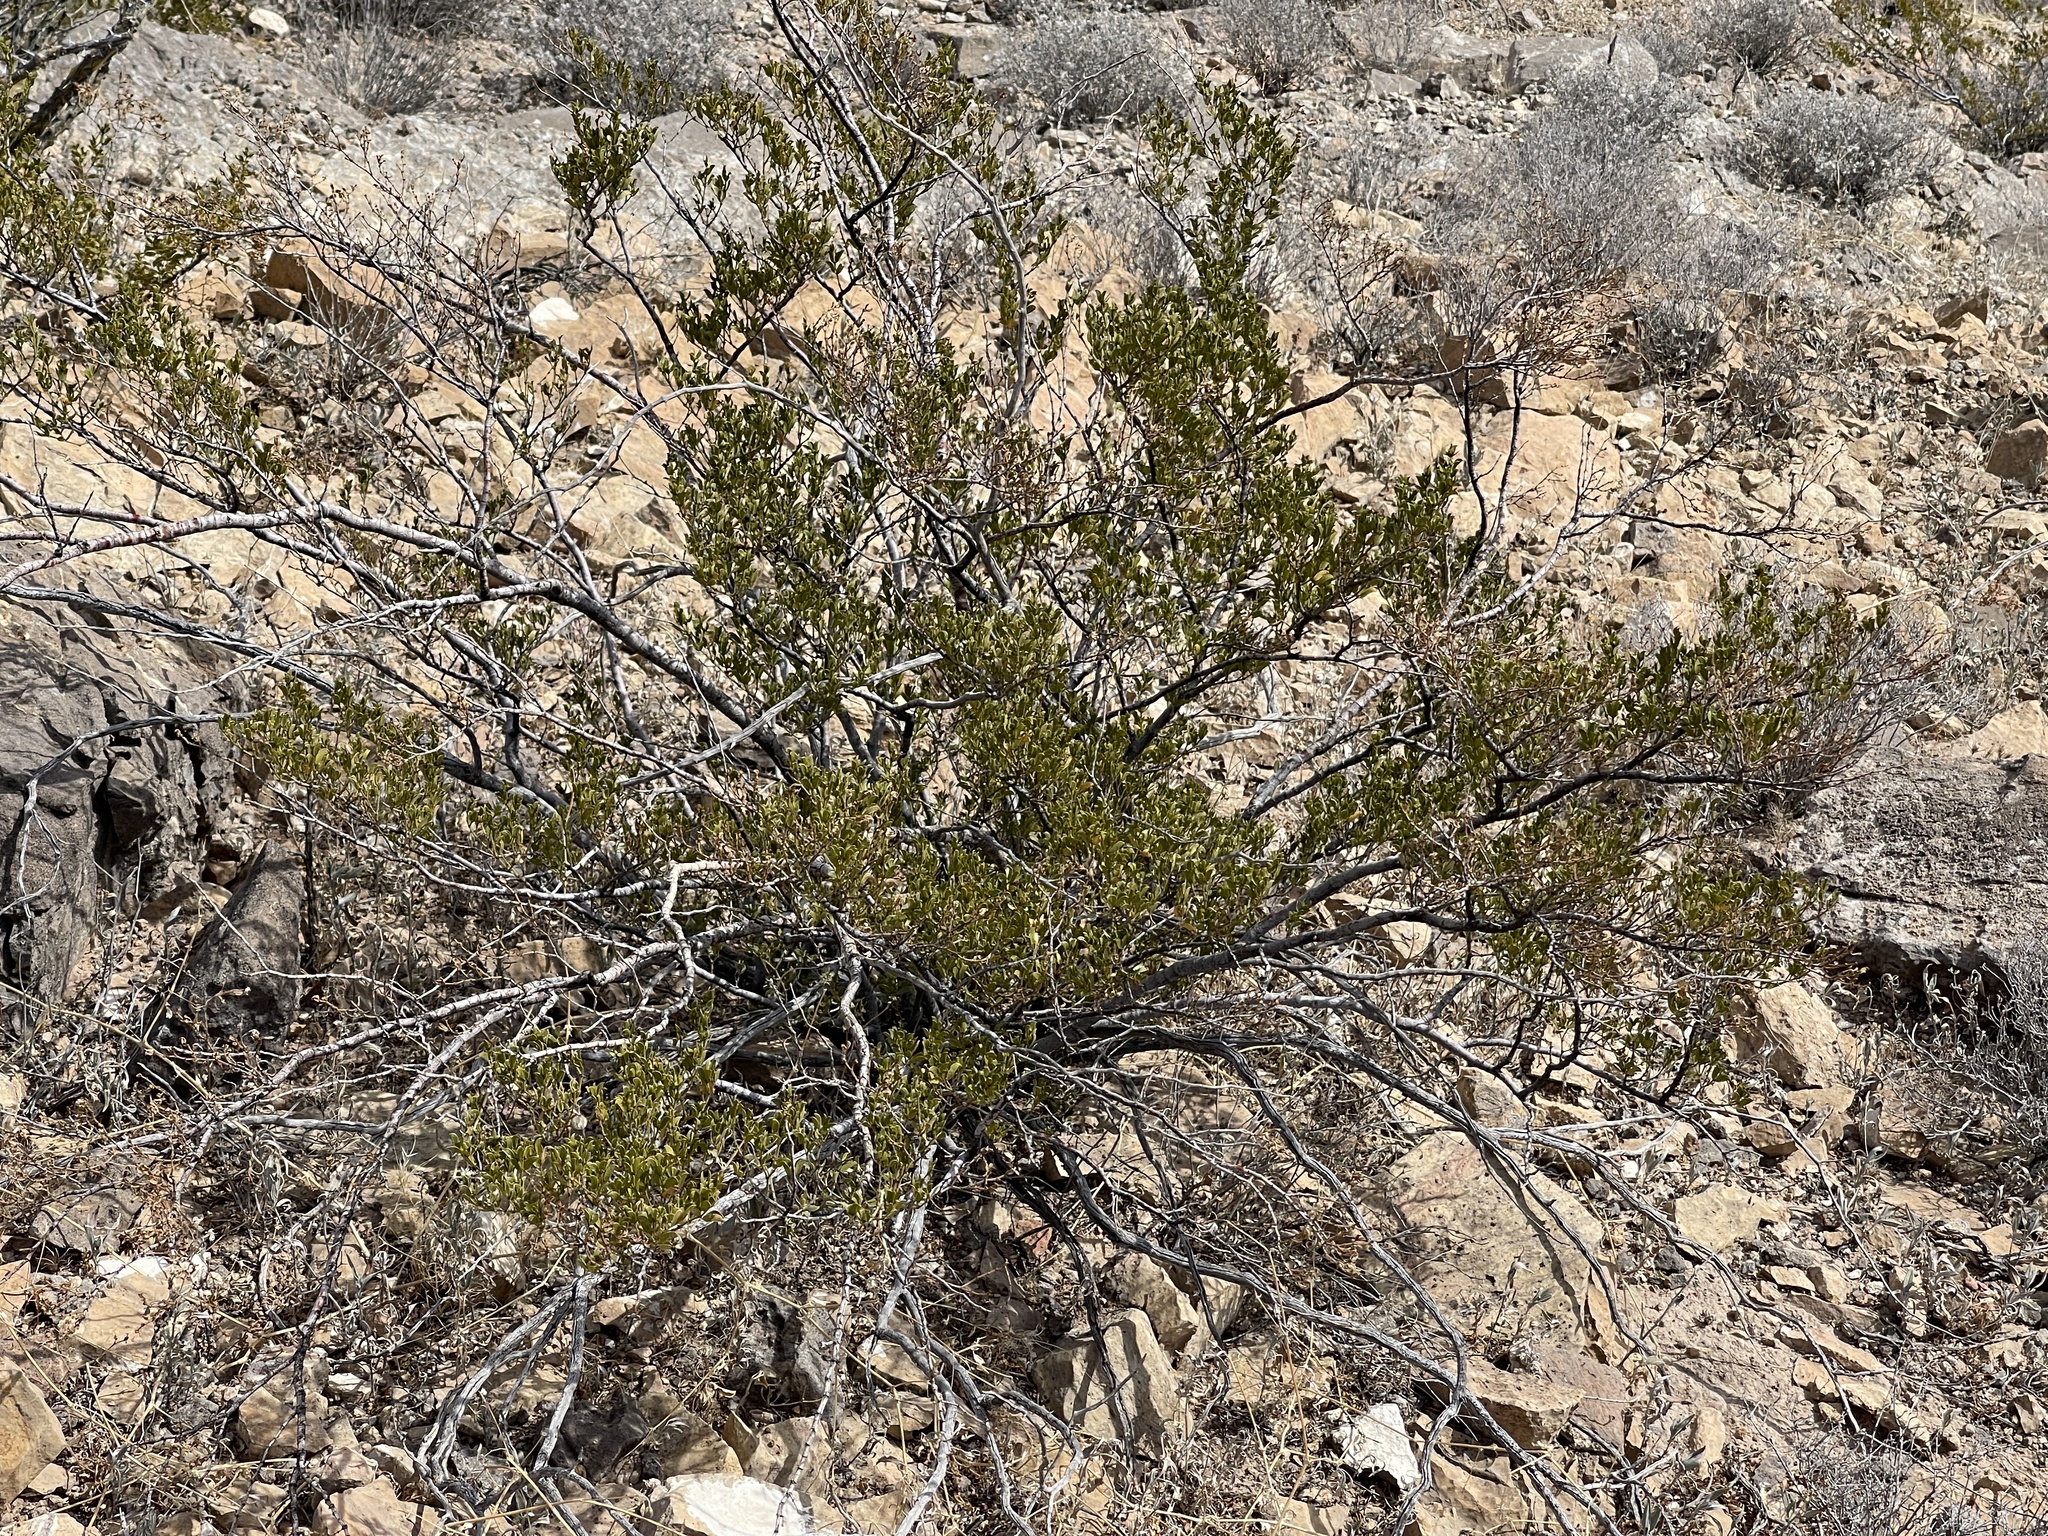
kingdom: Plantae
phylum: Tracheophyta
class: Magnoliopsida
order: Zygophyllales
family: Zygophyllaceae
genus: Larrea
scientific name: Larrea tridentata
